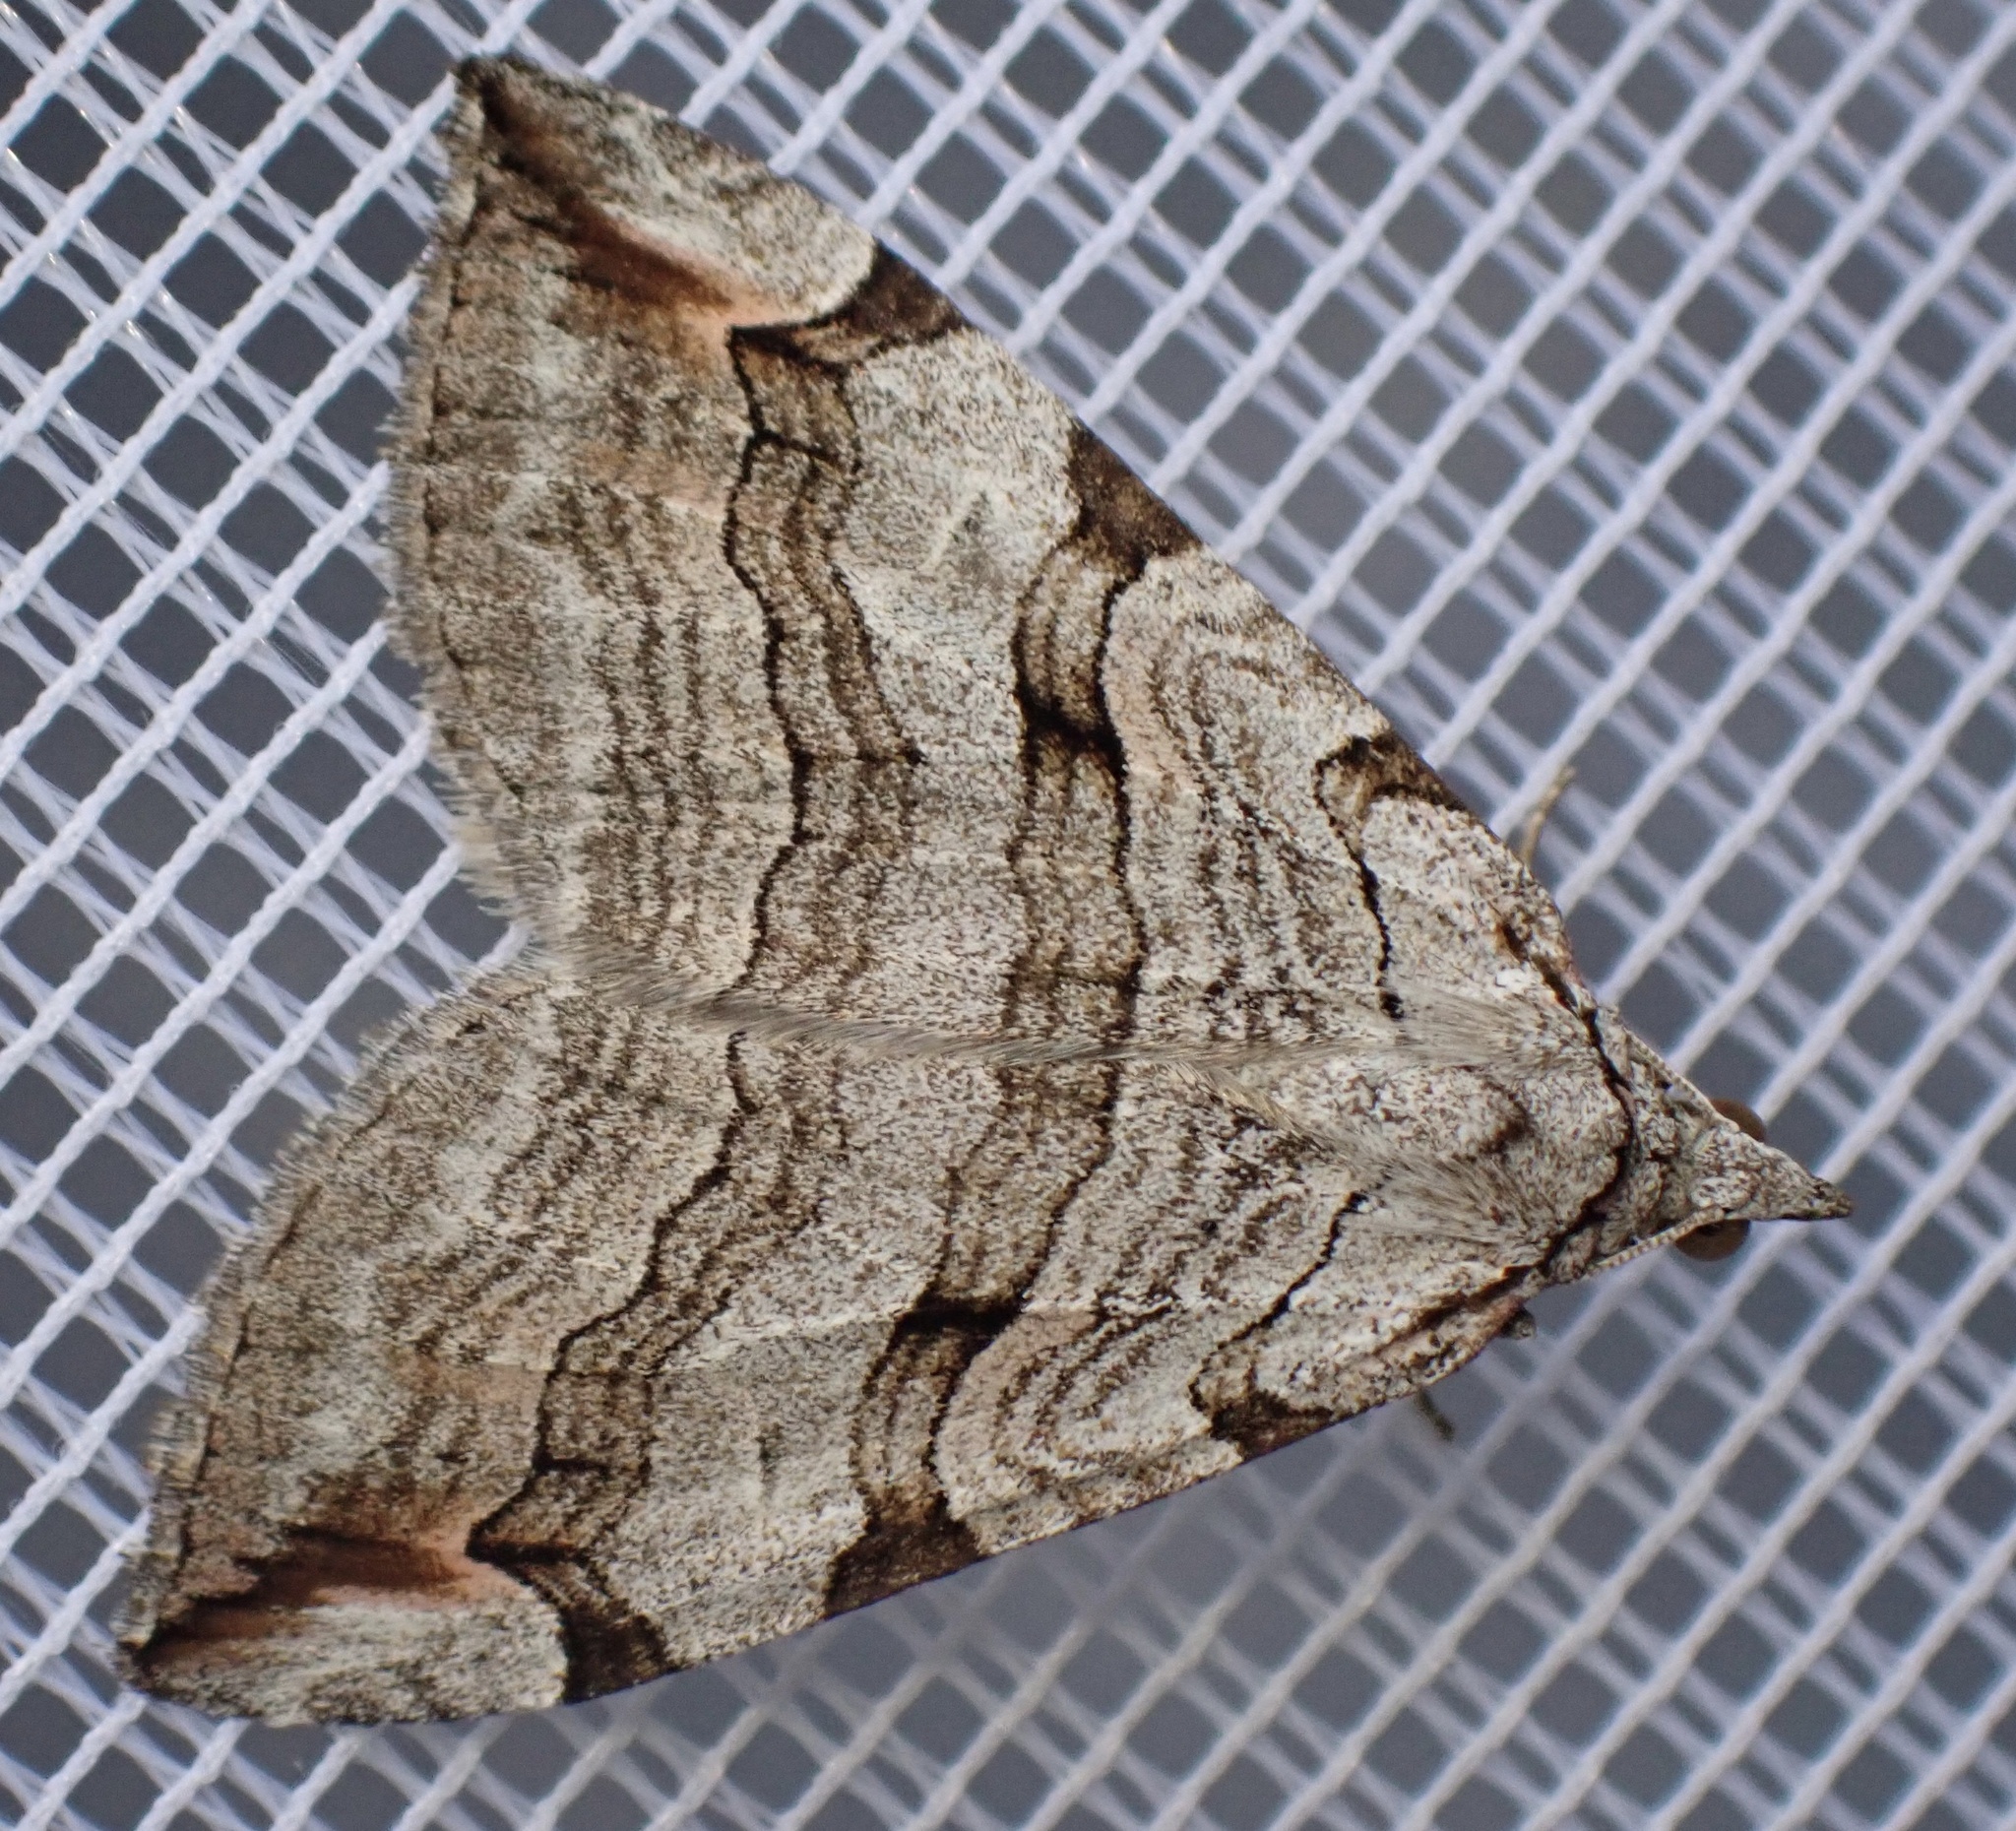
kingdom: Animalia
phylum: Arthropoda
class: Insecta
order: Lepidoptera
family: Geometridae
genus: Aplocera
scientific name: Aplocera plagiata
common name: Treble-bar
